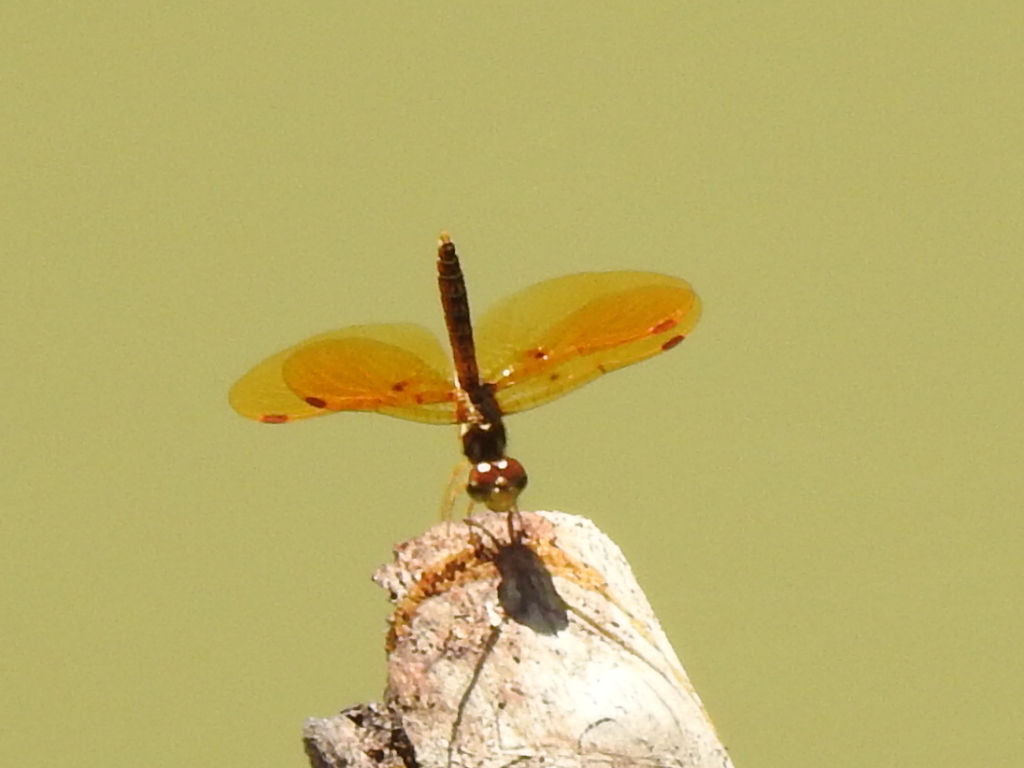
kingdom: Animalia
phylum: Arthropoda
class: Insecta
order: Odonata
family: Libellulidae
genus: Perithemis
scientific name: Perithemis tenera
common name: Eastern amberwing
